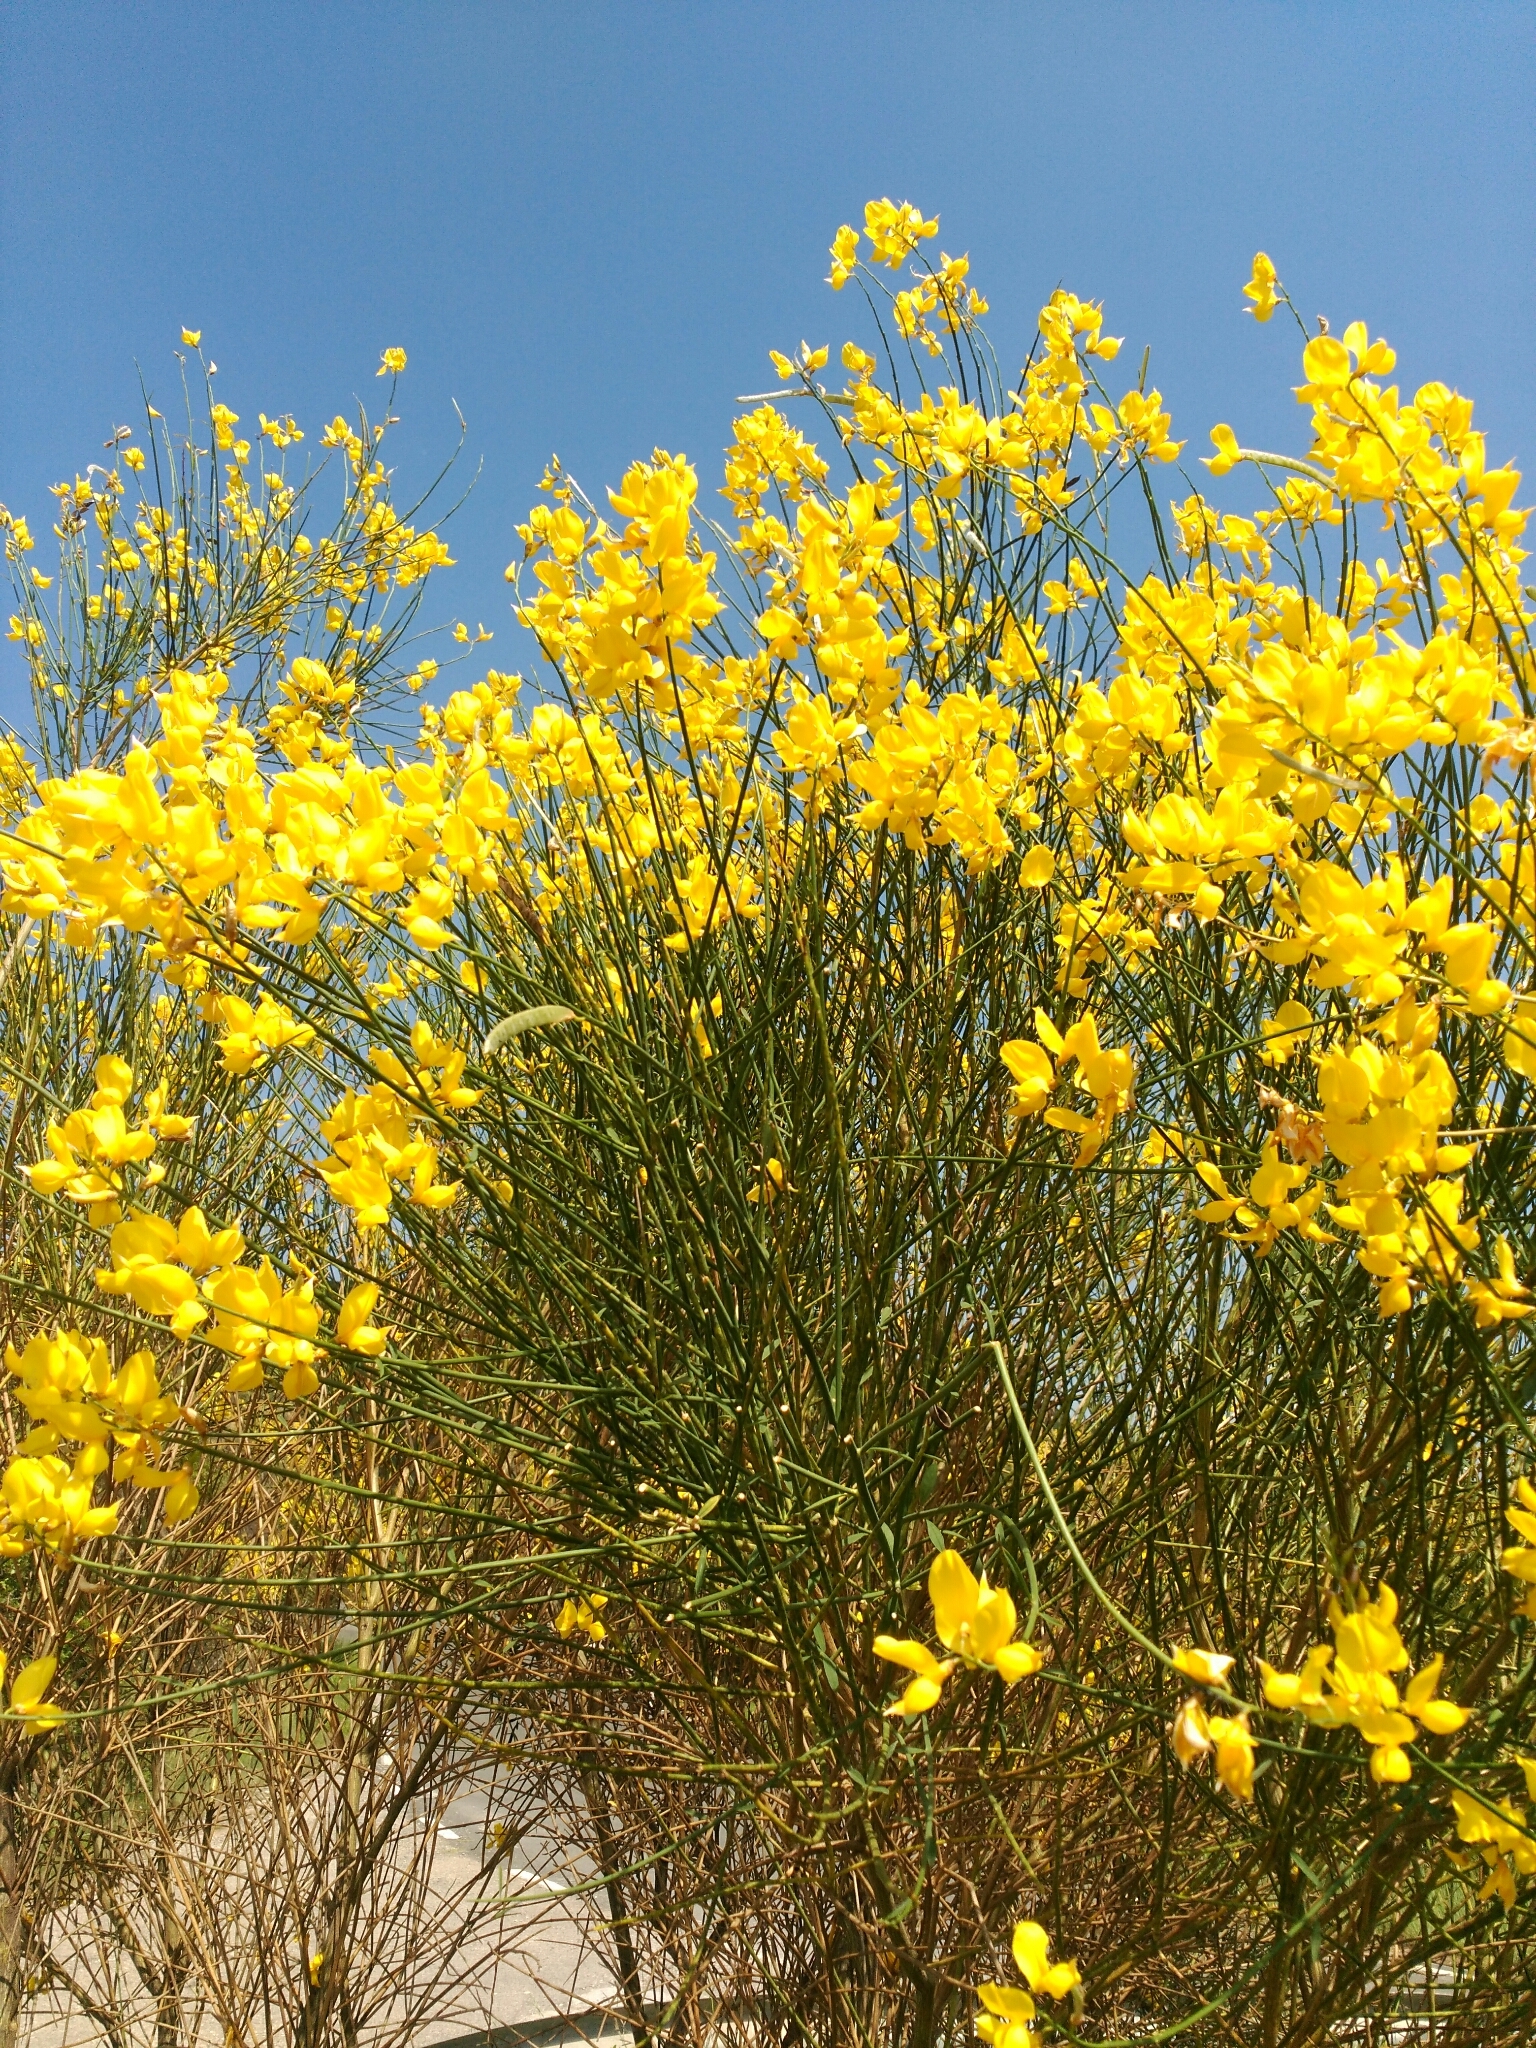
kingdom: Plantae
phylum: Tracheophyta
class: Magnoliopsida
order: Fabales
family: Fabaceae
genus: Spartium
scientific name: Spartium junceum
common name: Spanish broom
